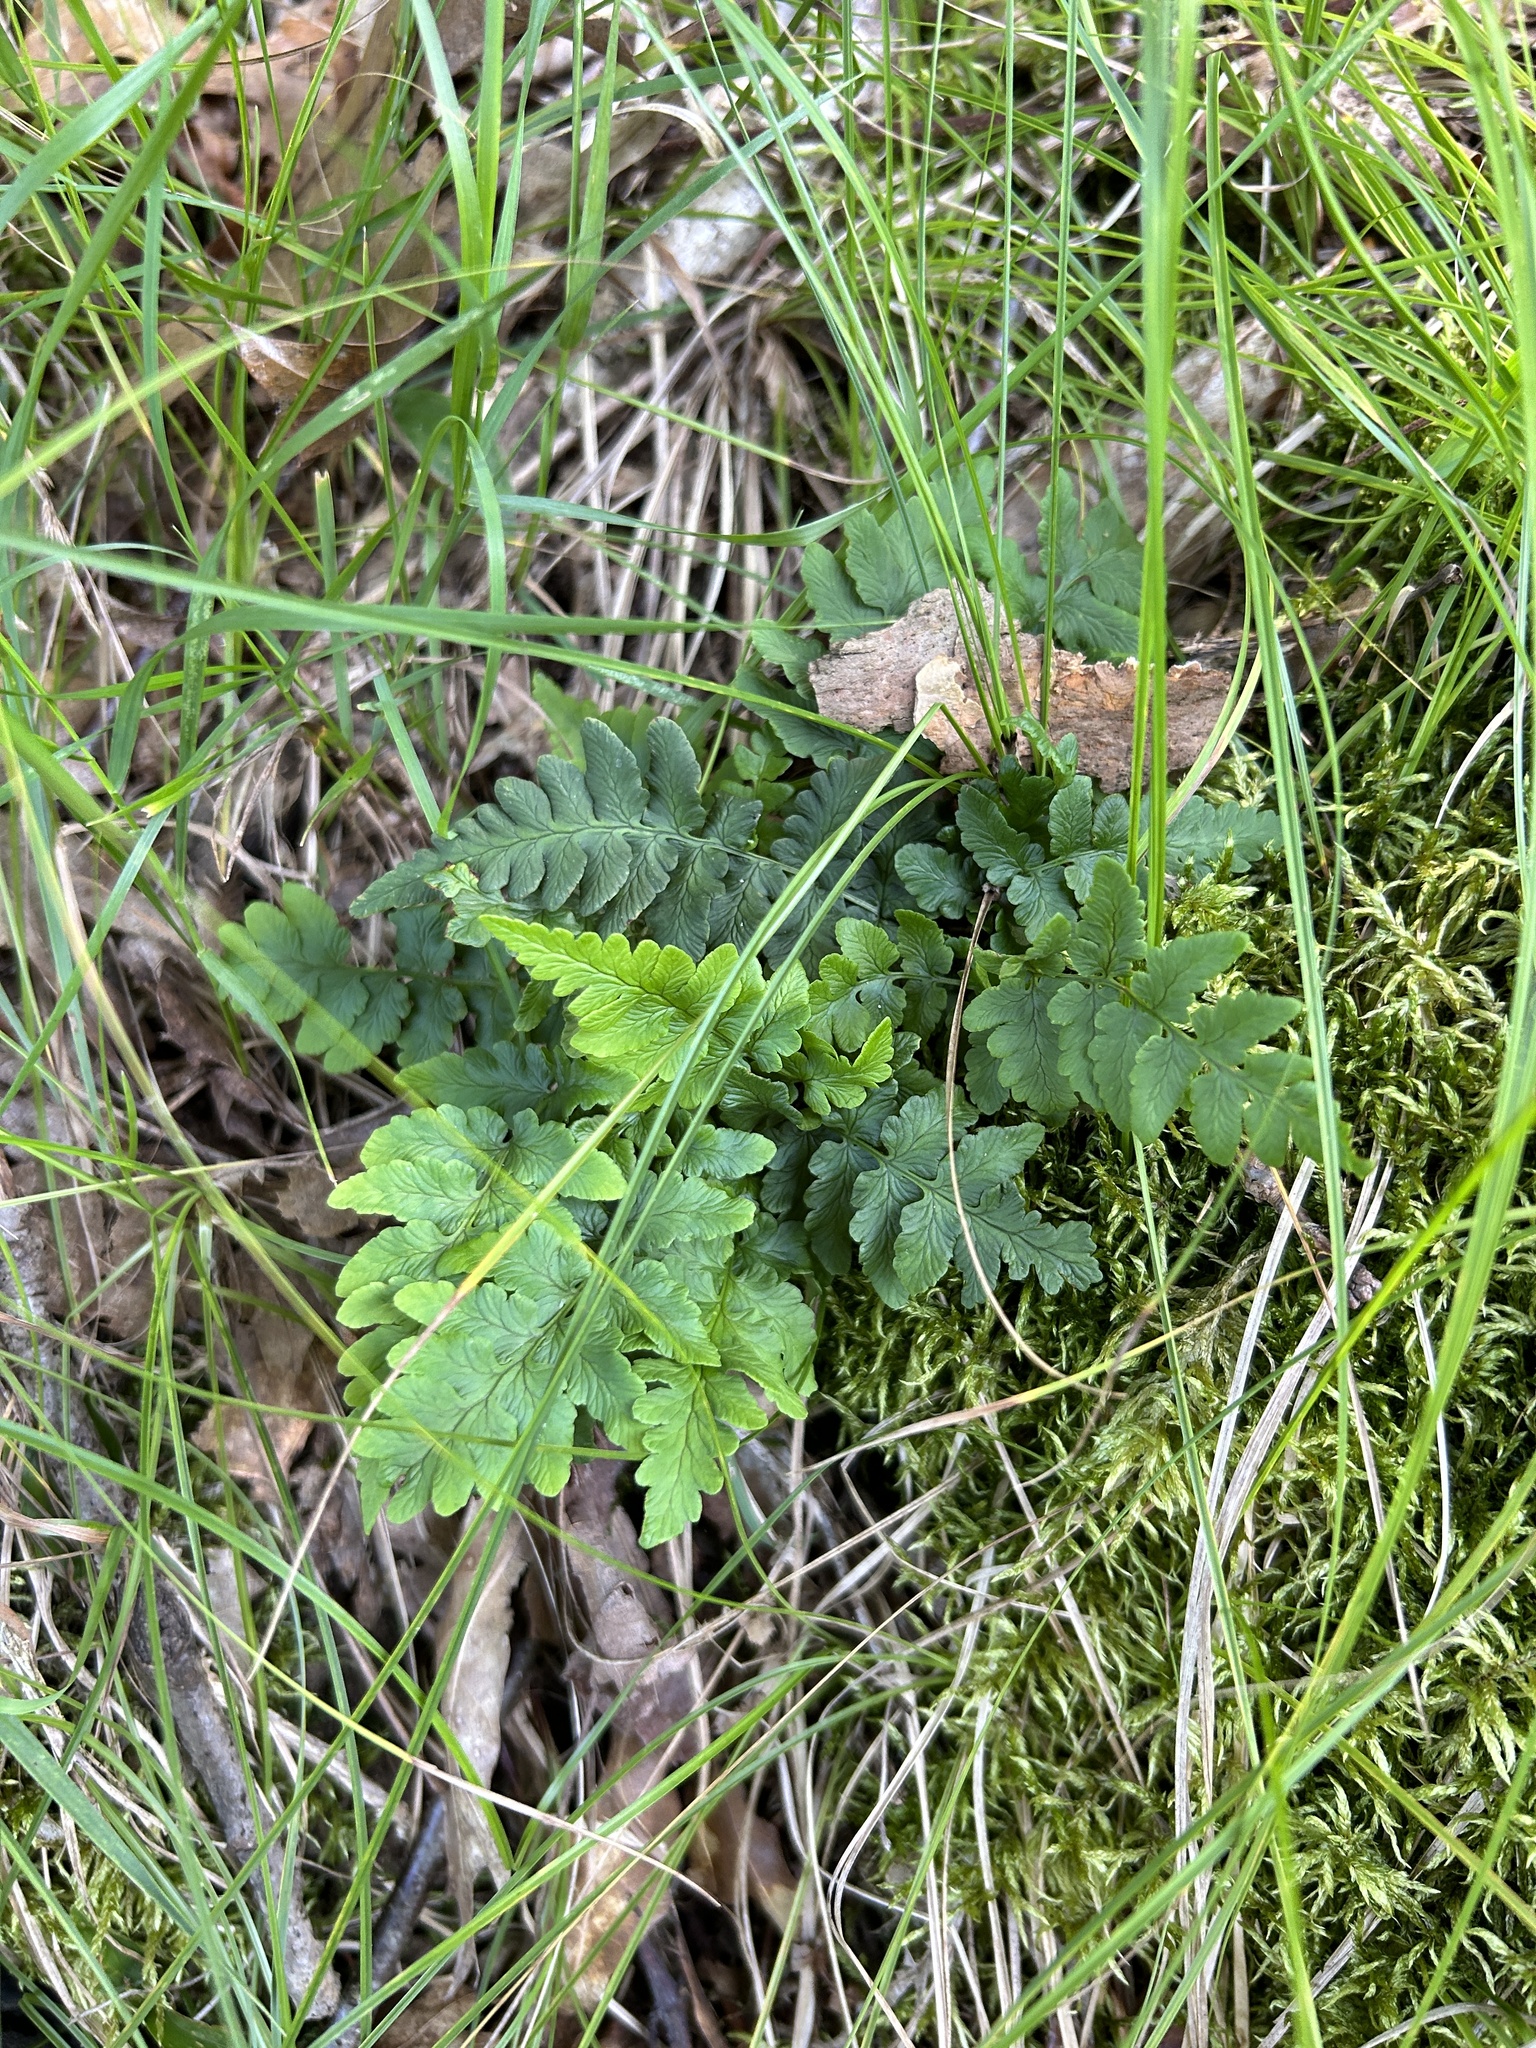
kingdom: Plantae
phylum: Tracheophyta
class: Polypodiopsida
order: Polypodiales
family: Dryopteridaceae
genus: Dryopteris
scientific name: Dryopteris marginalis
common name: Marginal wood fern
